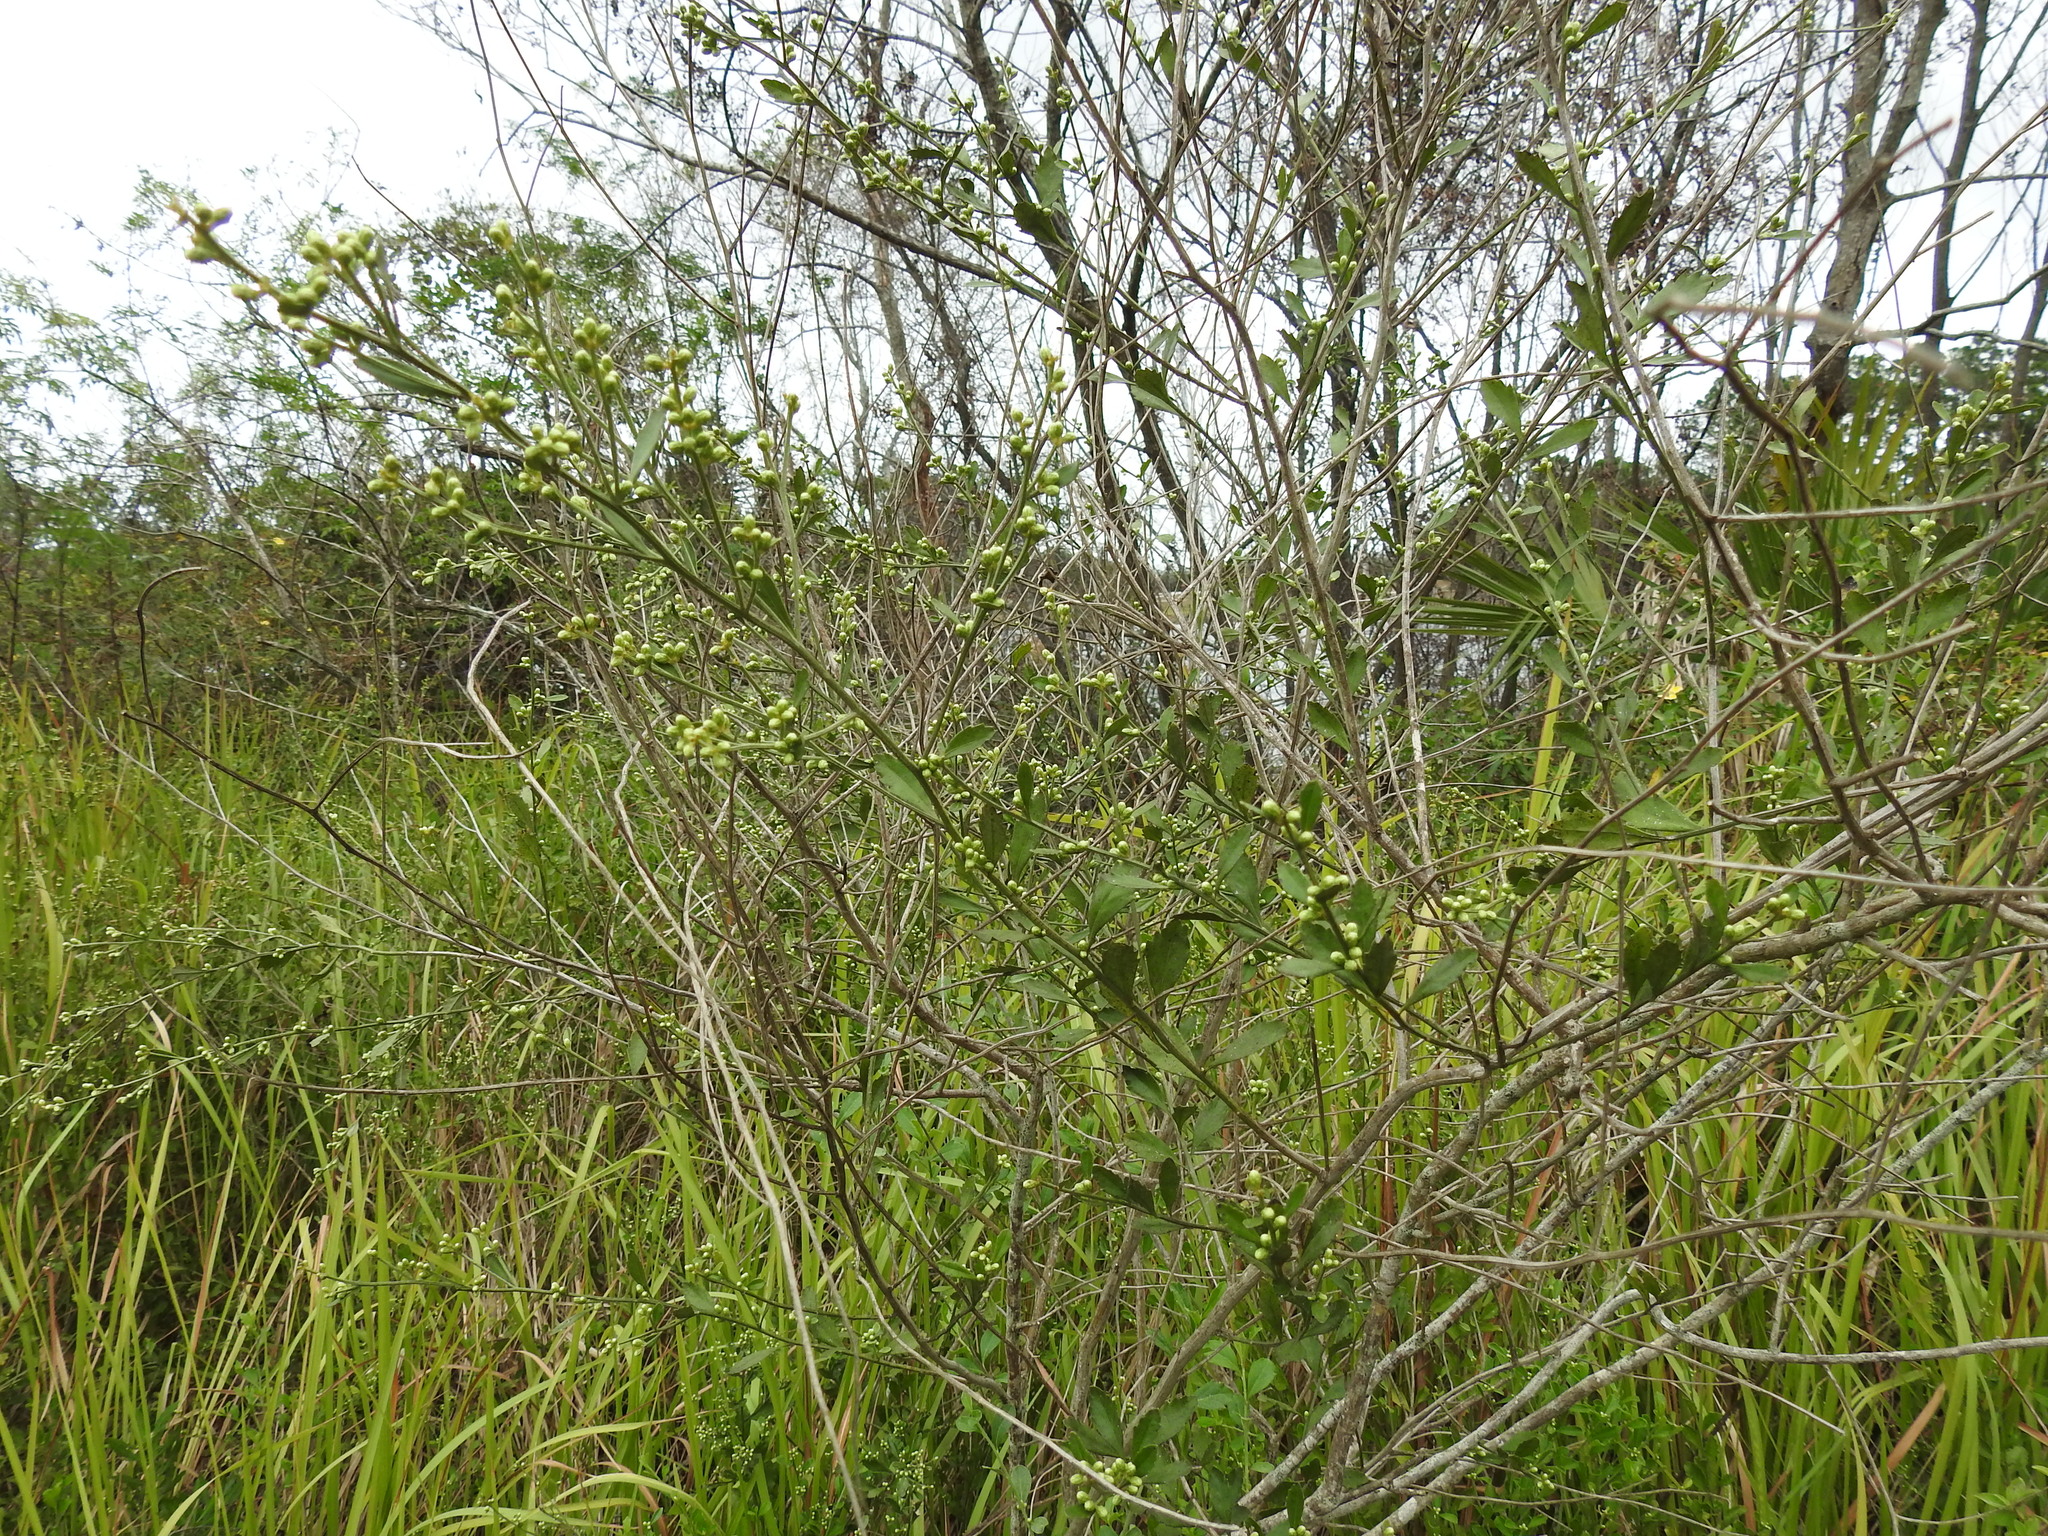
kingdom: Plantae
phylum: Tracheophyta
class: Magnoliopsida
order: Asterales
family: Asteraceae
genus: Baccharis
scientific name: Baccharis glomeruliflora
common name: Silverling groundsel bush
